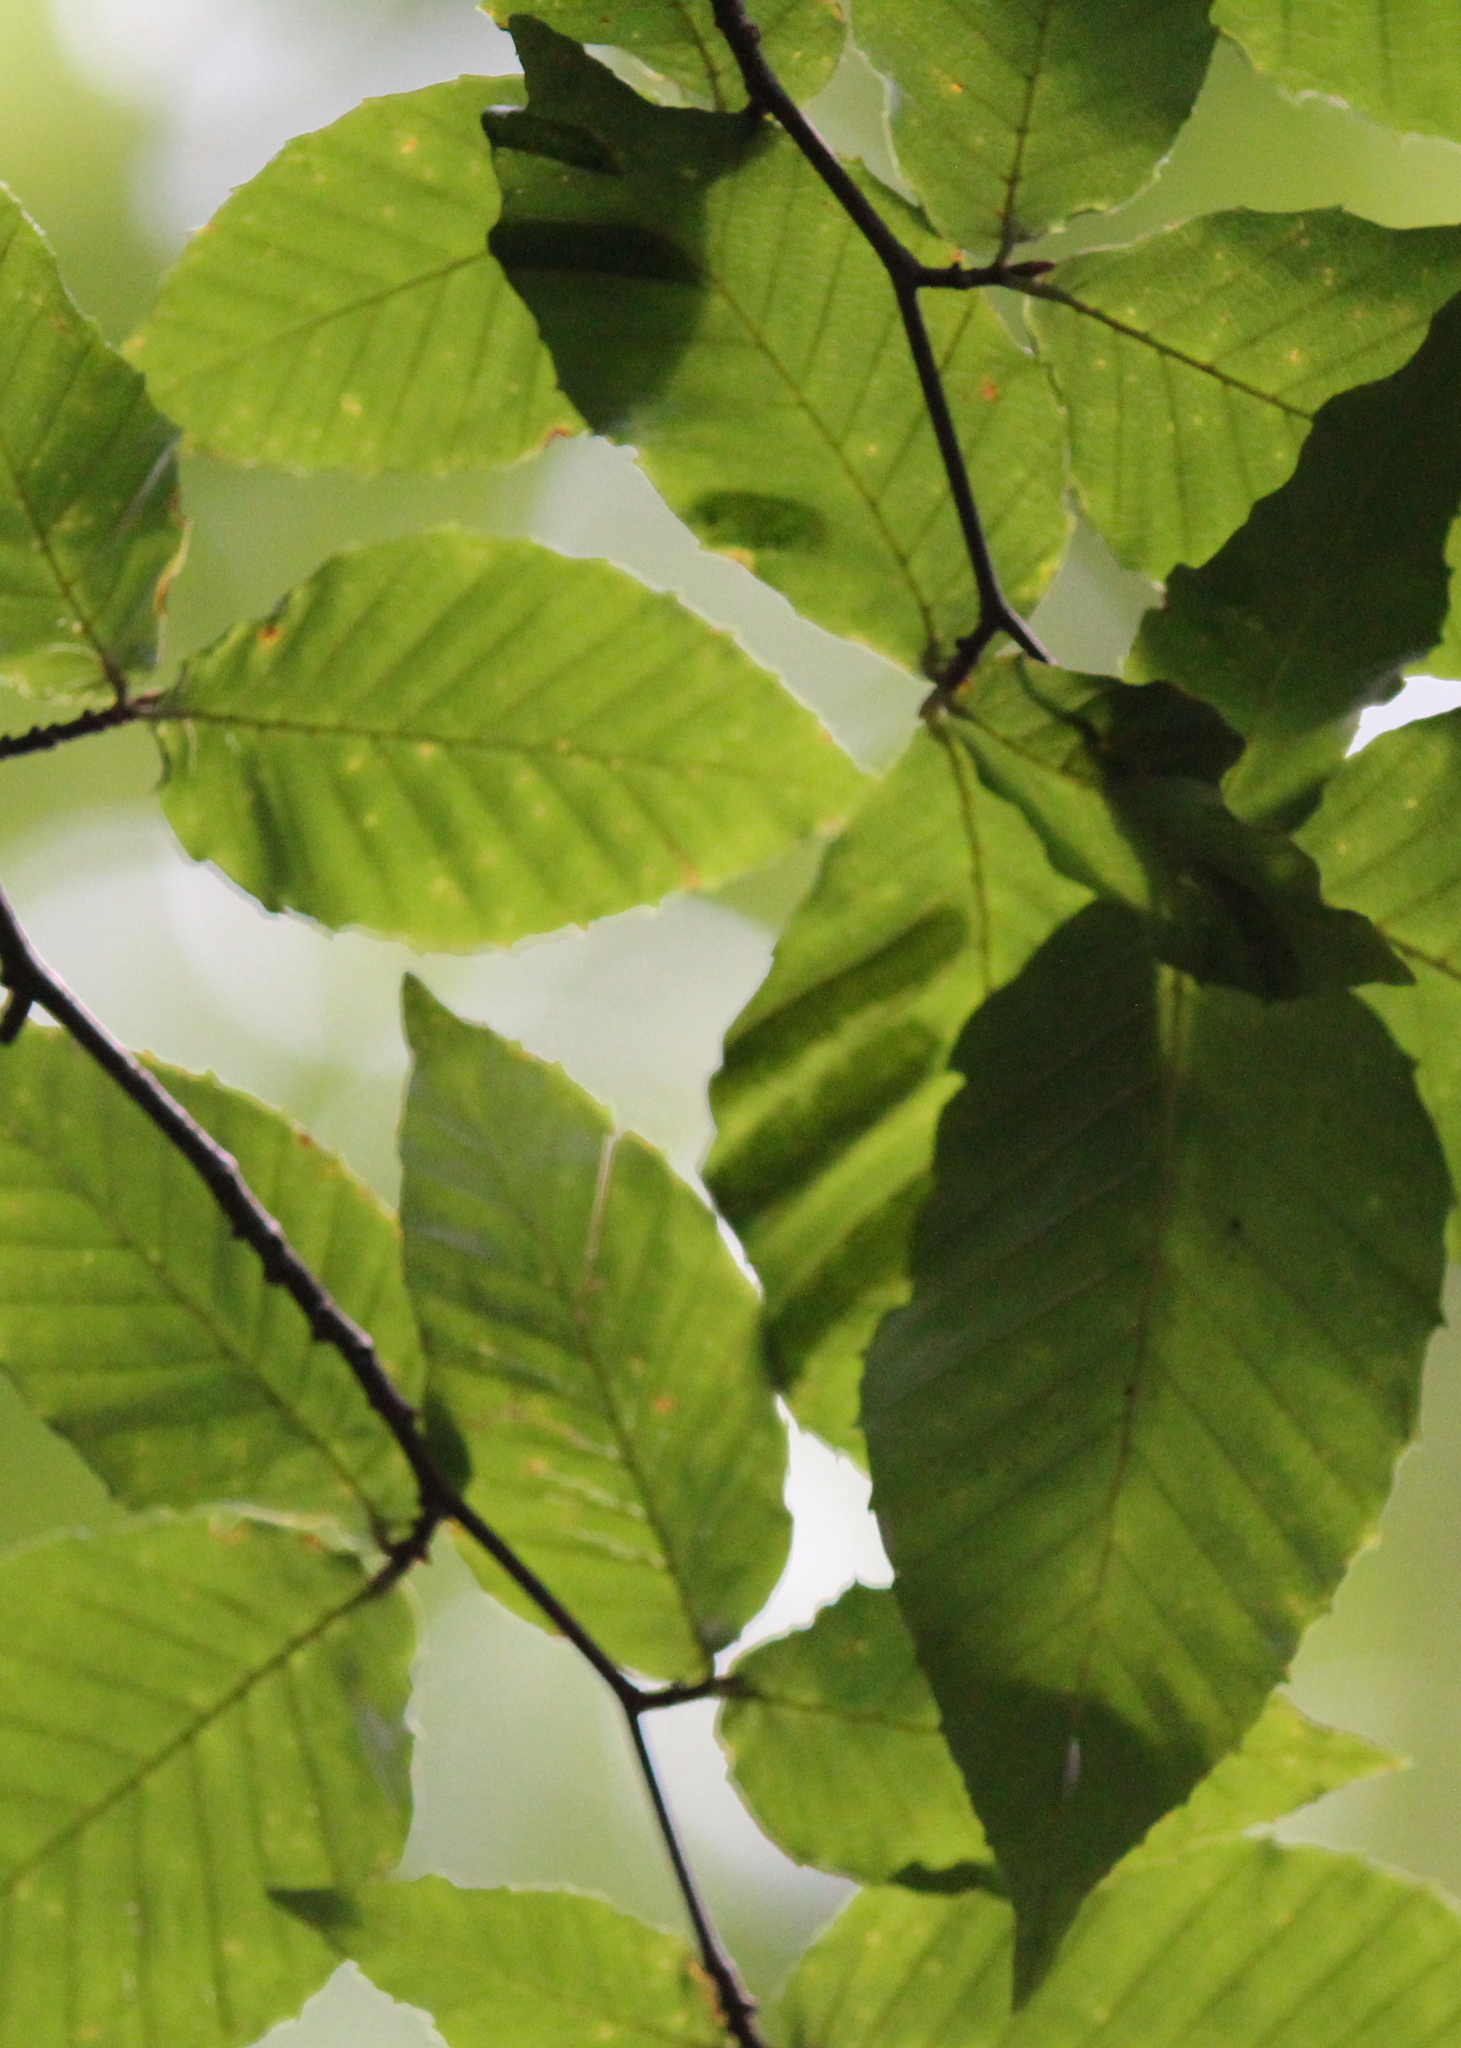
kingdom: Animalia
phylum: Nematoda
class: Chromadorea
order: Rhabditida
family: Anguinidae
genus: Litylenchus
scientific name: Litylenchus crenatae
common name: Beech leaf disease
